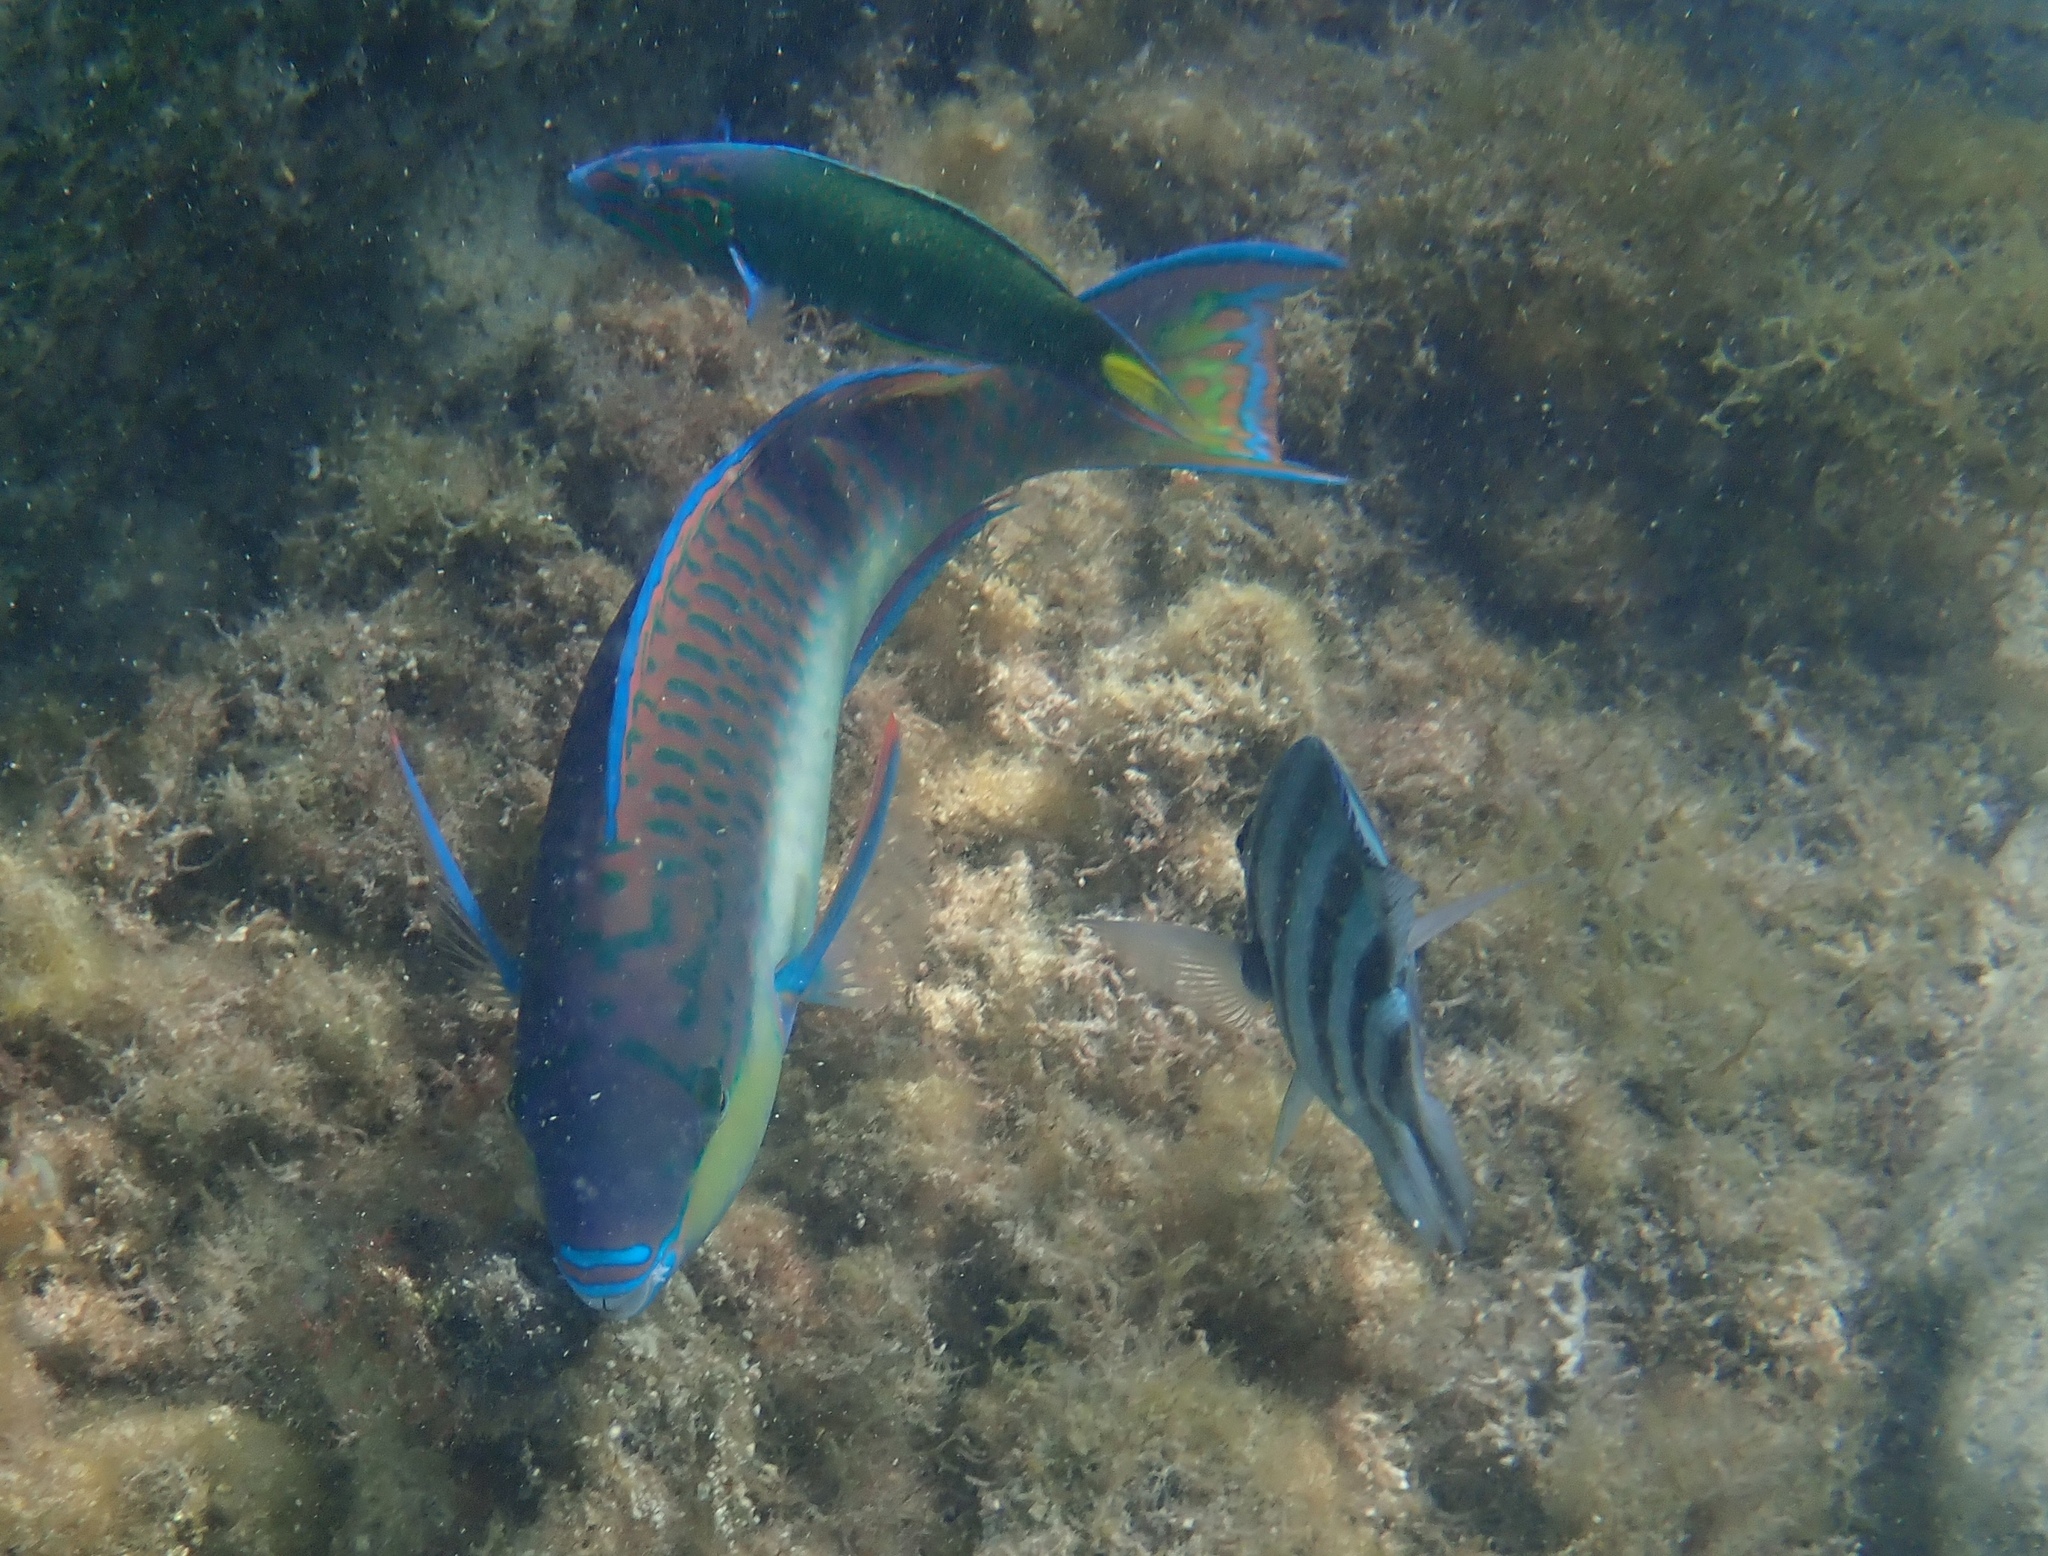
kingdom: Animalia
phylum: Chordata
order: Perciformes
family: Scaridae
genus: Scarus
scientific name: Scarus chameleon
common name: Chameleon parrotfish
